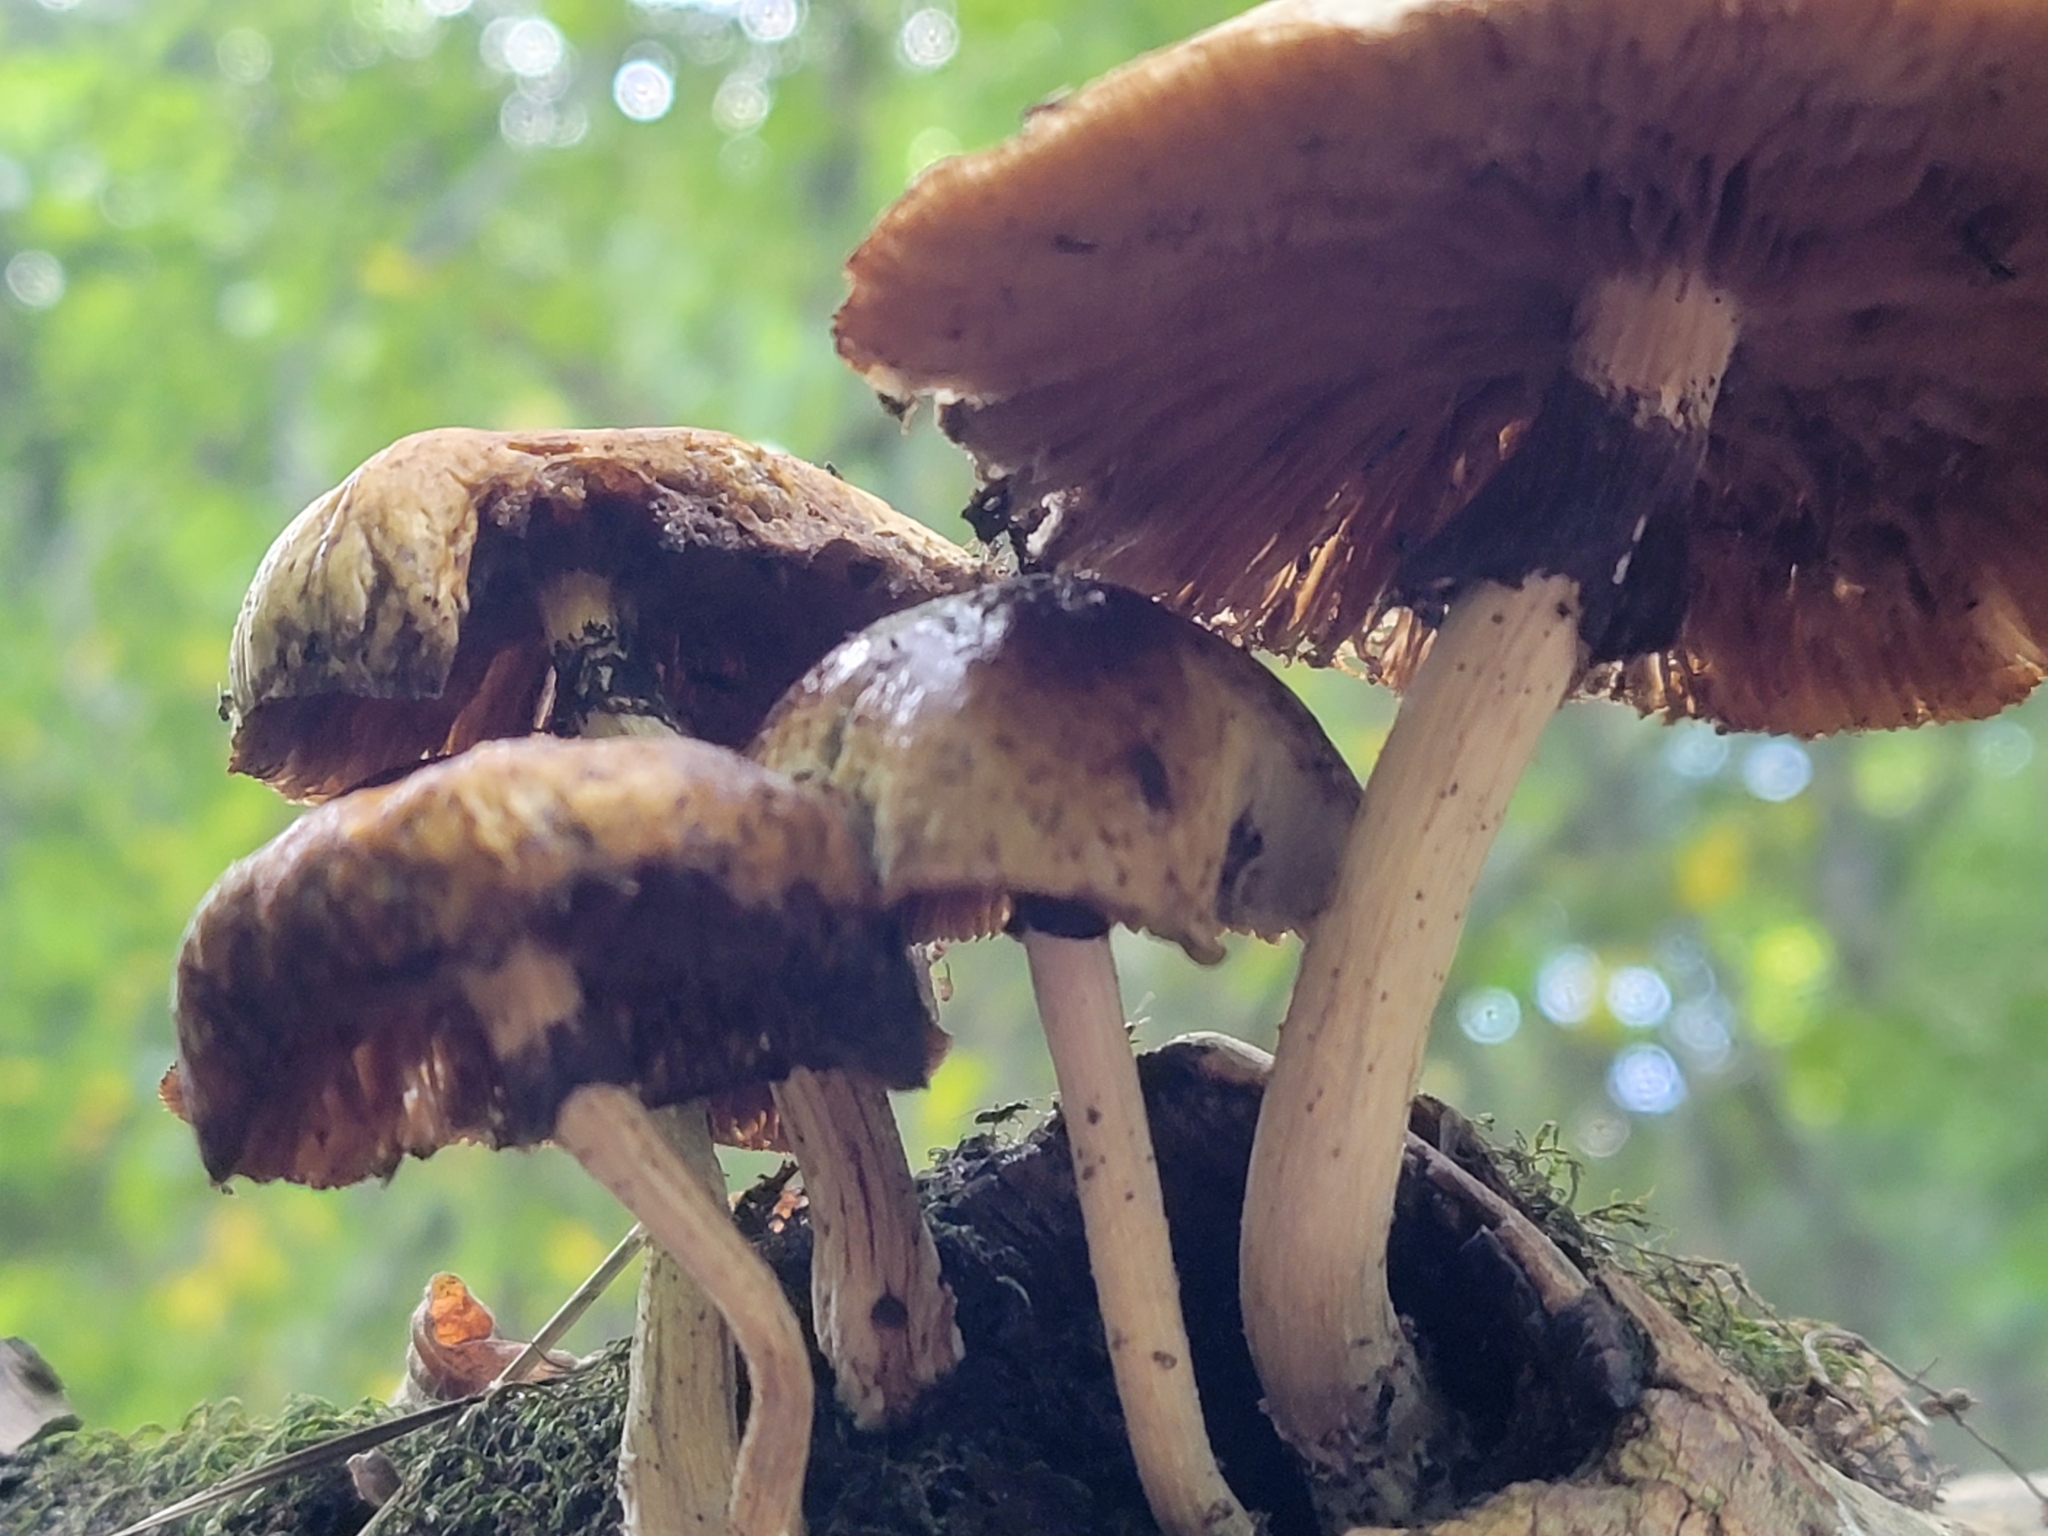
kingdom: Fungi
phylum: Basidiomycota
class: Agaricomycetes
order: Agaricales
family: Tubariaceae
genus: Cyclocybe
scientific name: Cyclocybe cylindracea
